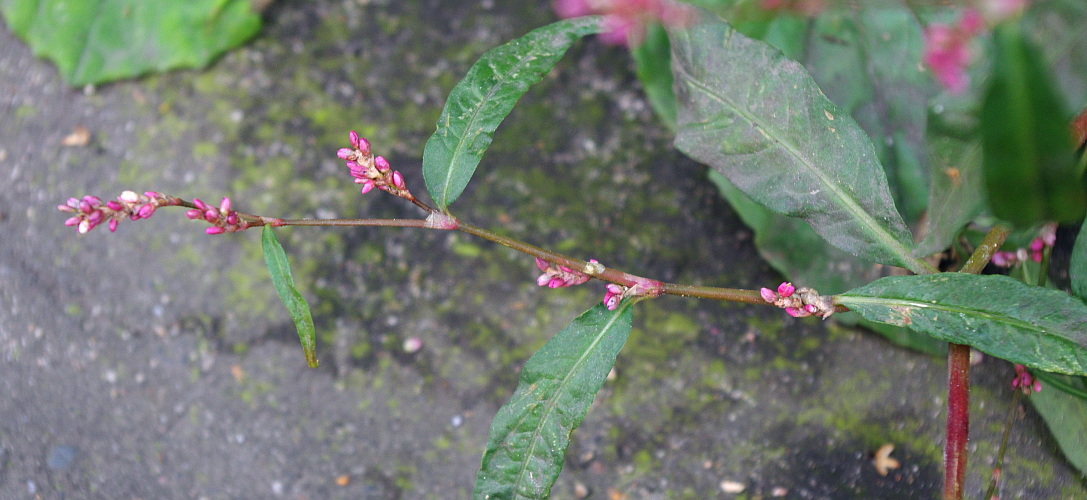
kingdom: Plantae
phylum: Tracheophyta
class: Magnoliopsida
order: Caryophyllales
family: Polygonaceae
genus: Persicaria
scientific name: Persicaria lapathifolia
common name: Curlytop knotweed
